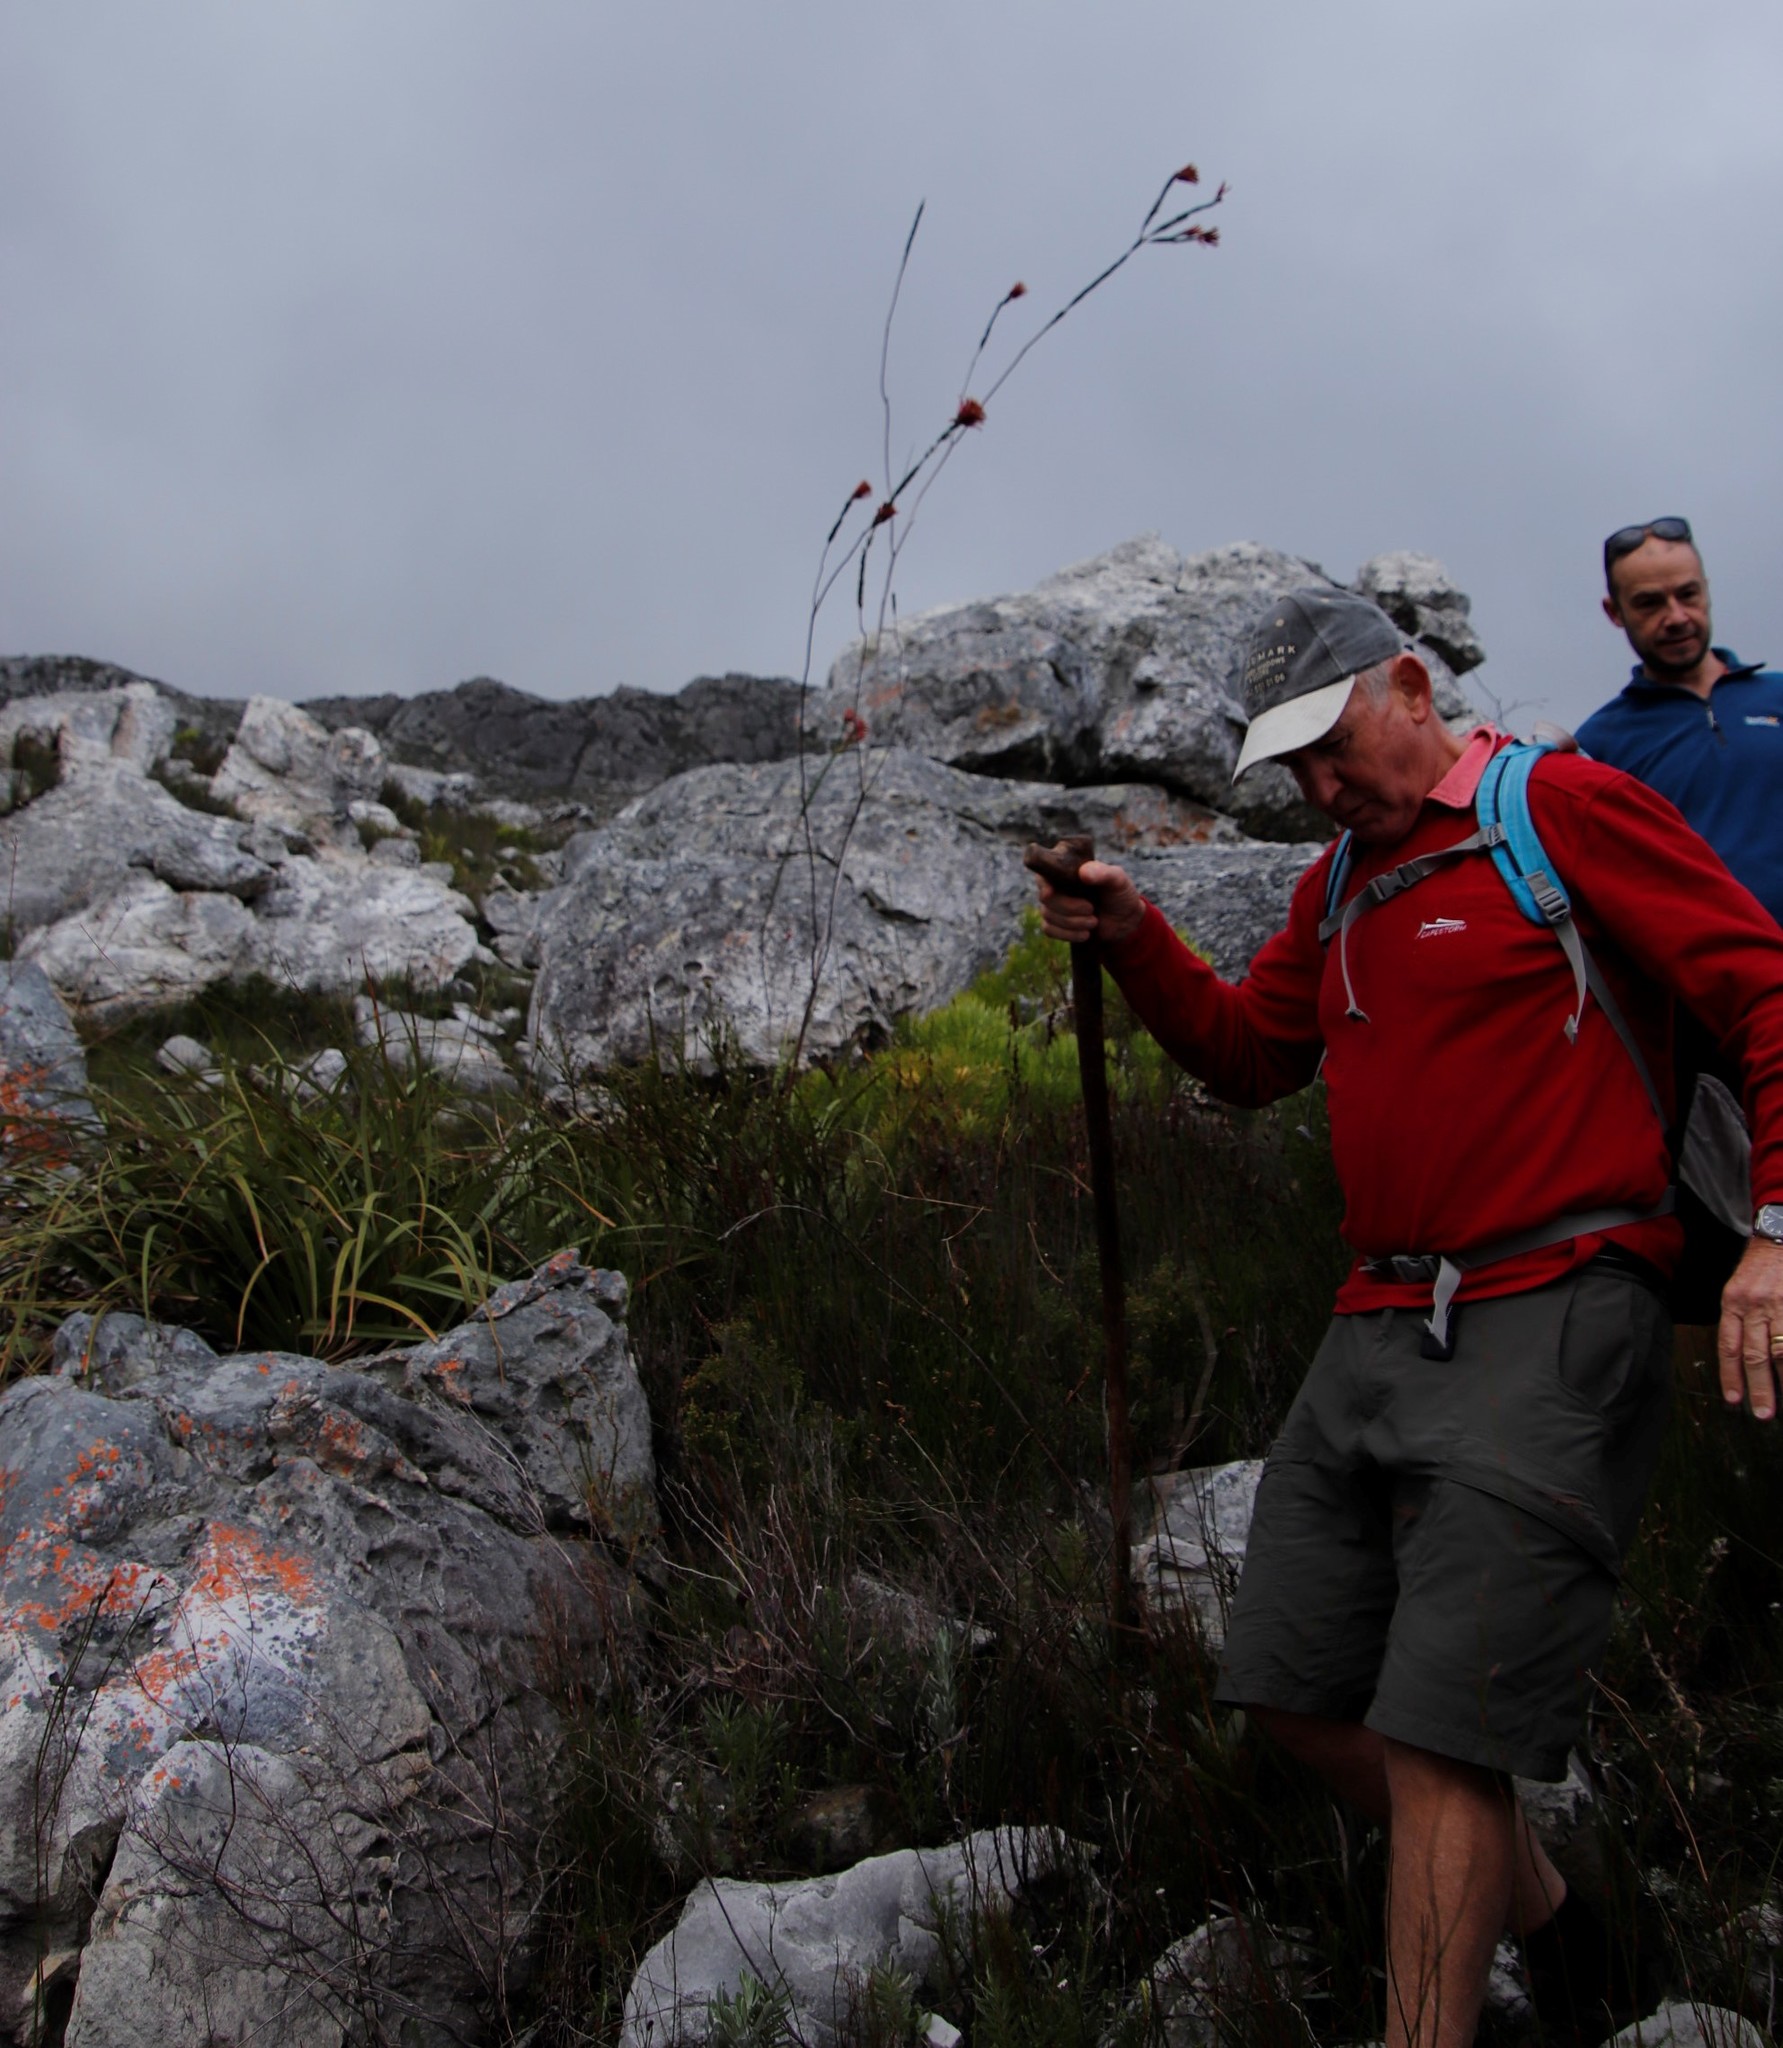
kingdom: Plantae
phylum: Tracheophyta
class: Magnoliopsida
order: Ericales
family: Ericaceae
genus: Erica
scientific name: Erica fascicularis
